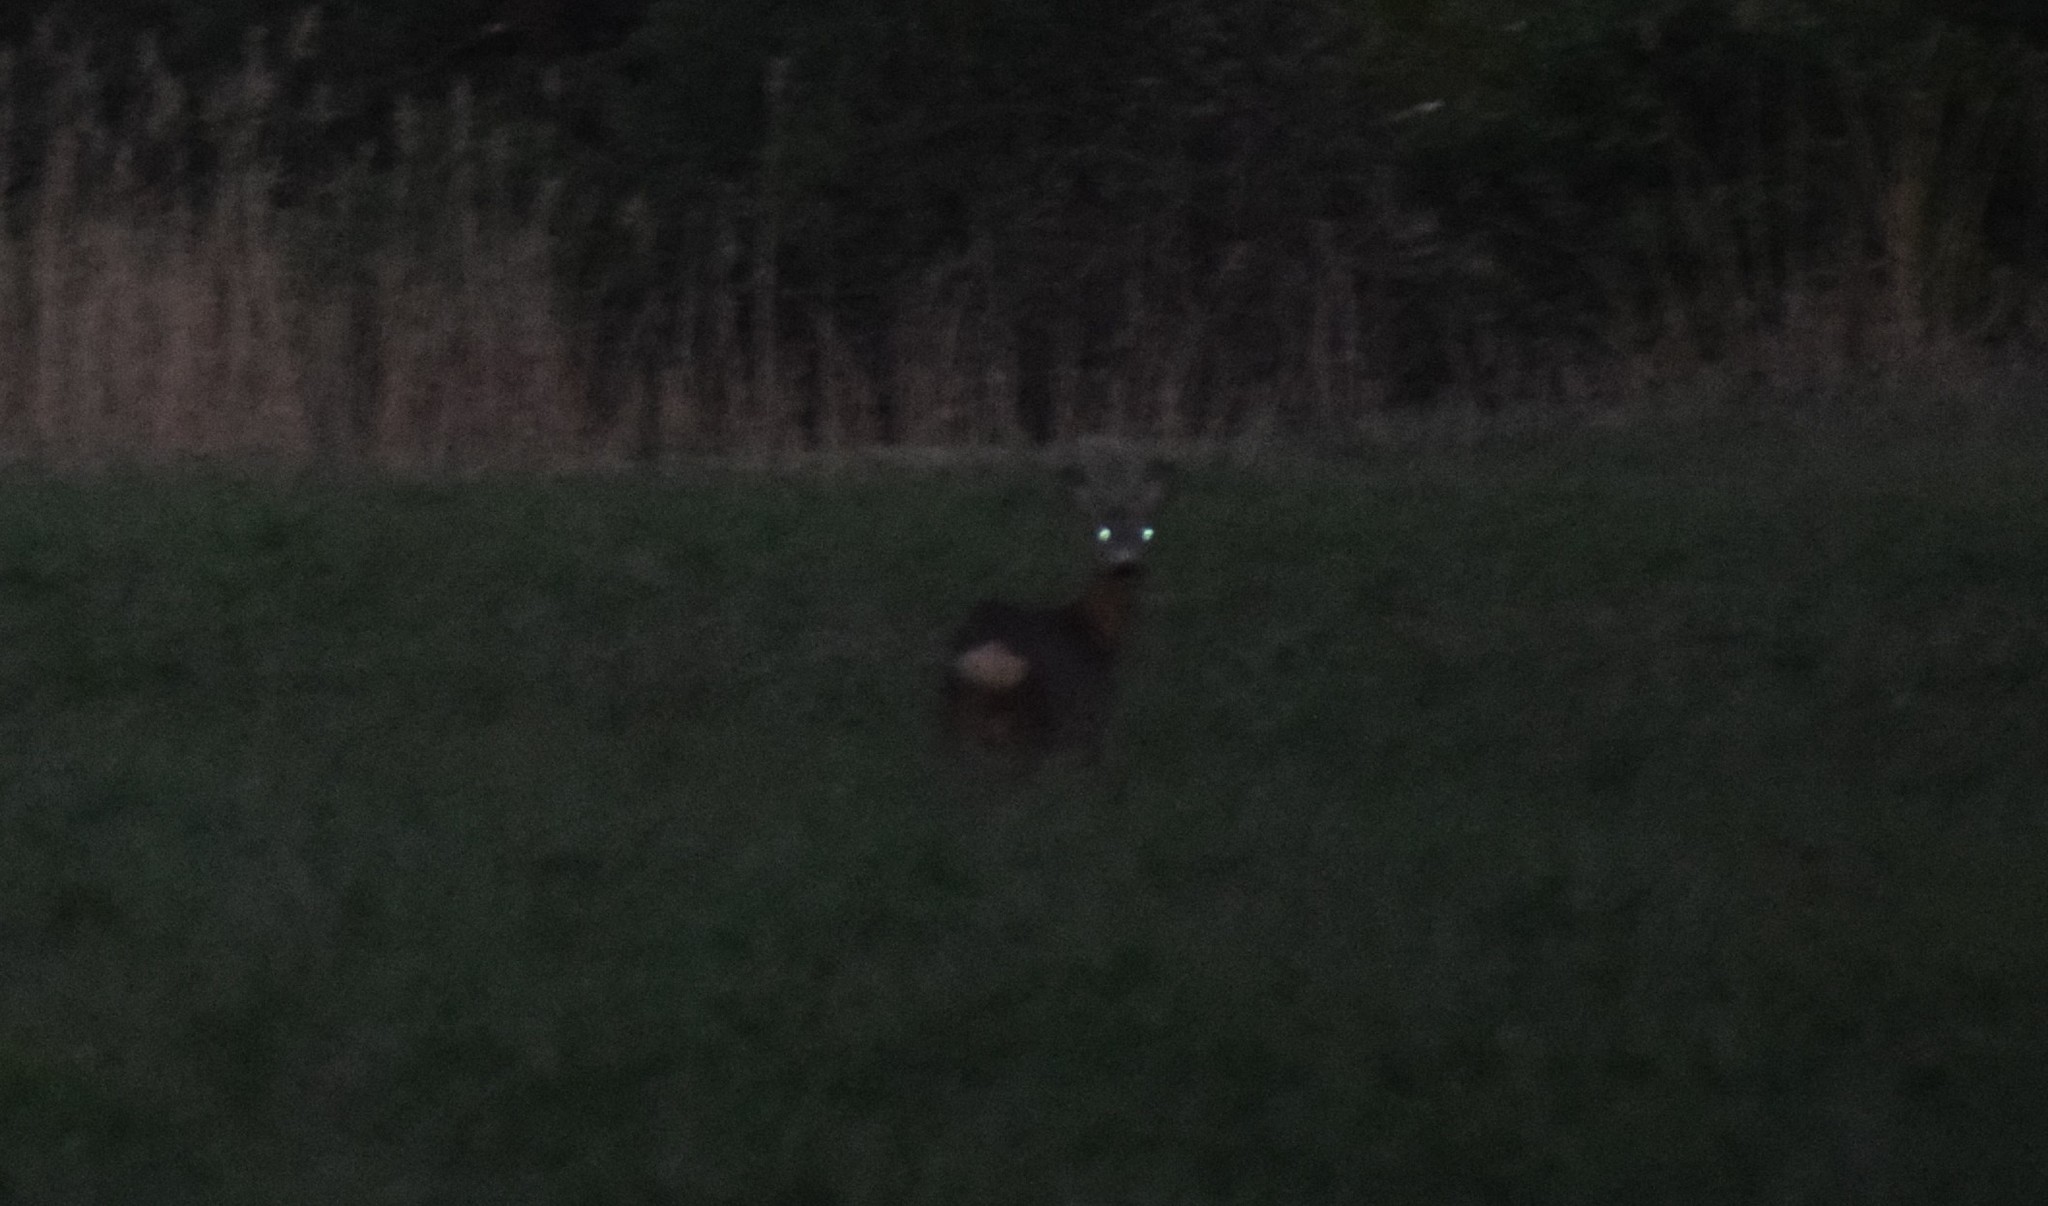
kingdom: Animalia
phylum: Chordata
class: Mammalia
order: Artiodactyla
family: Cervidae
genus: Capreolus
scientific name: Capreolus capreolus
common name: Western roe deer
